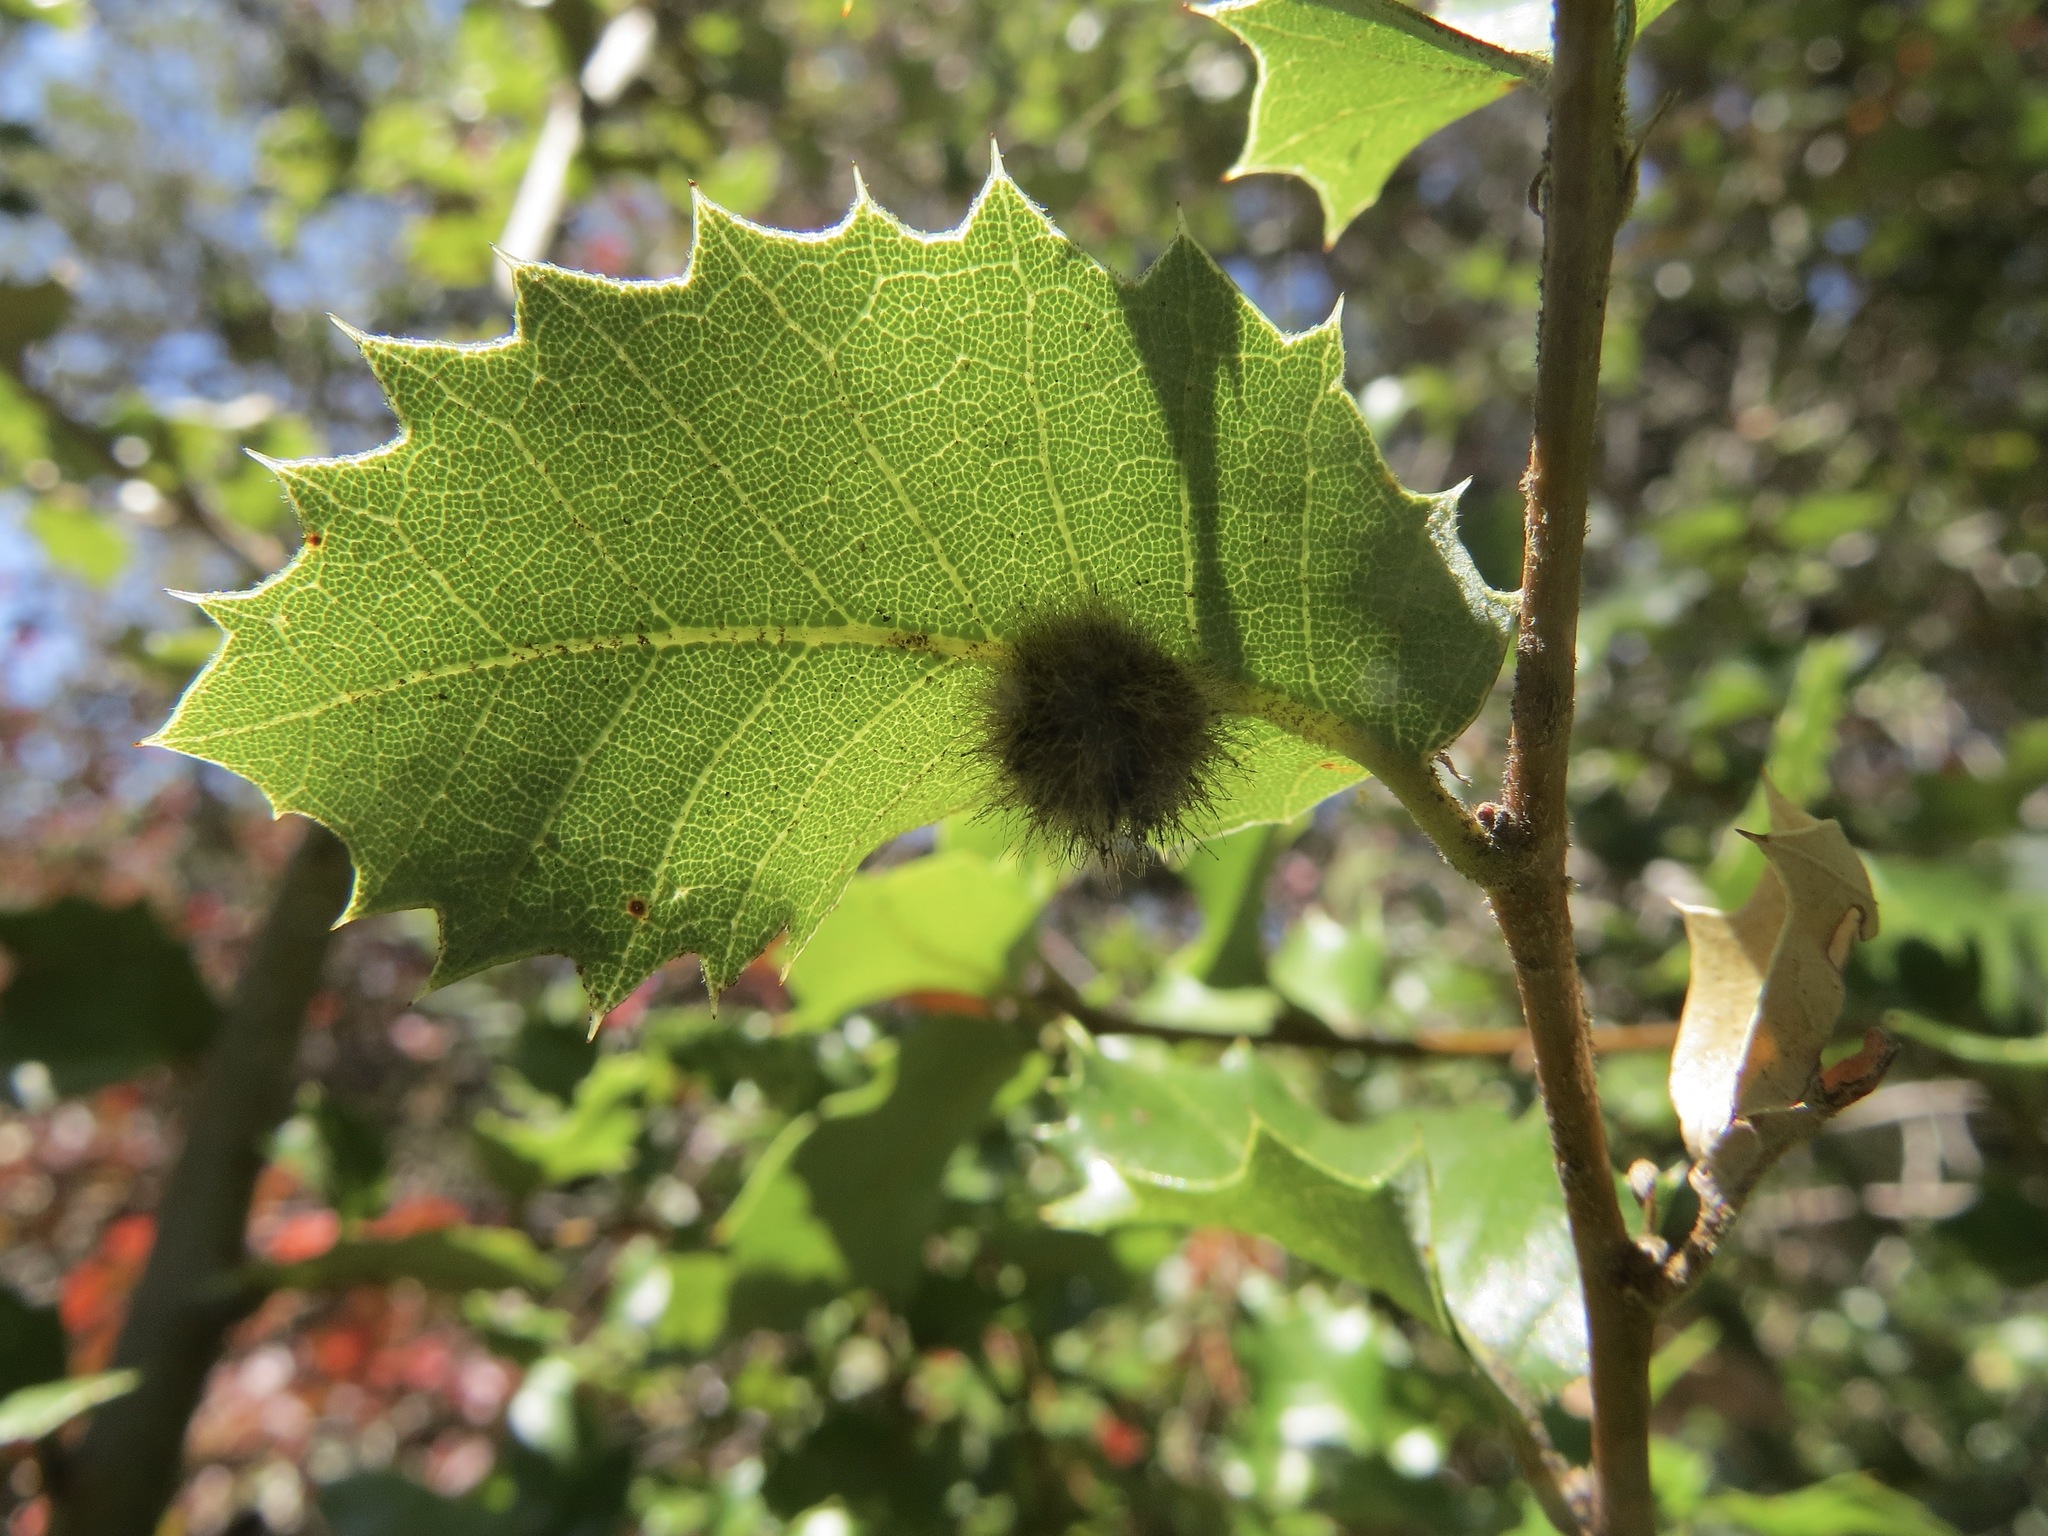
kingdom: Animalia
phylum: Arthropoda
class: Insecta
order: Hymenoptera
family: Cynipidae
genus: Disholandricus
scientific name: Disholandricus
